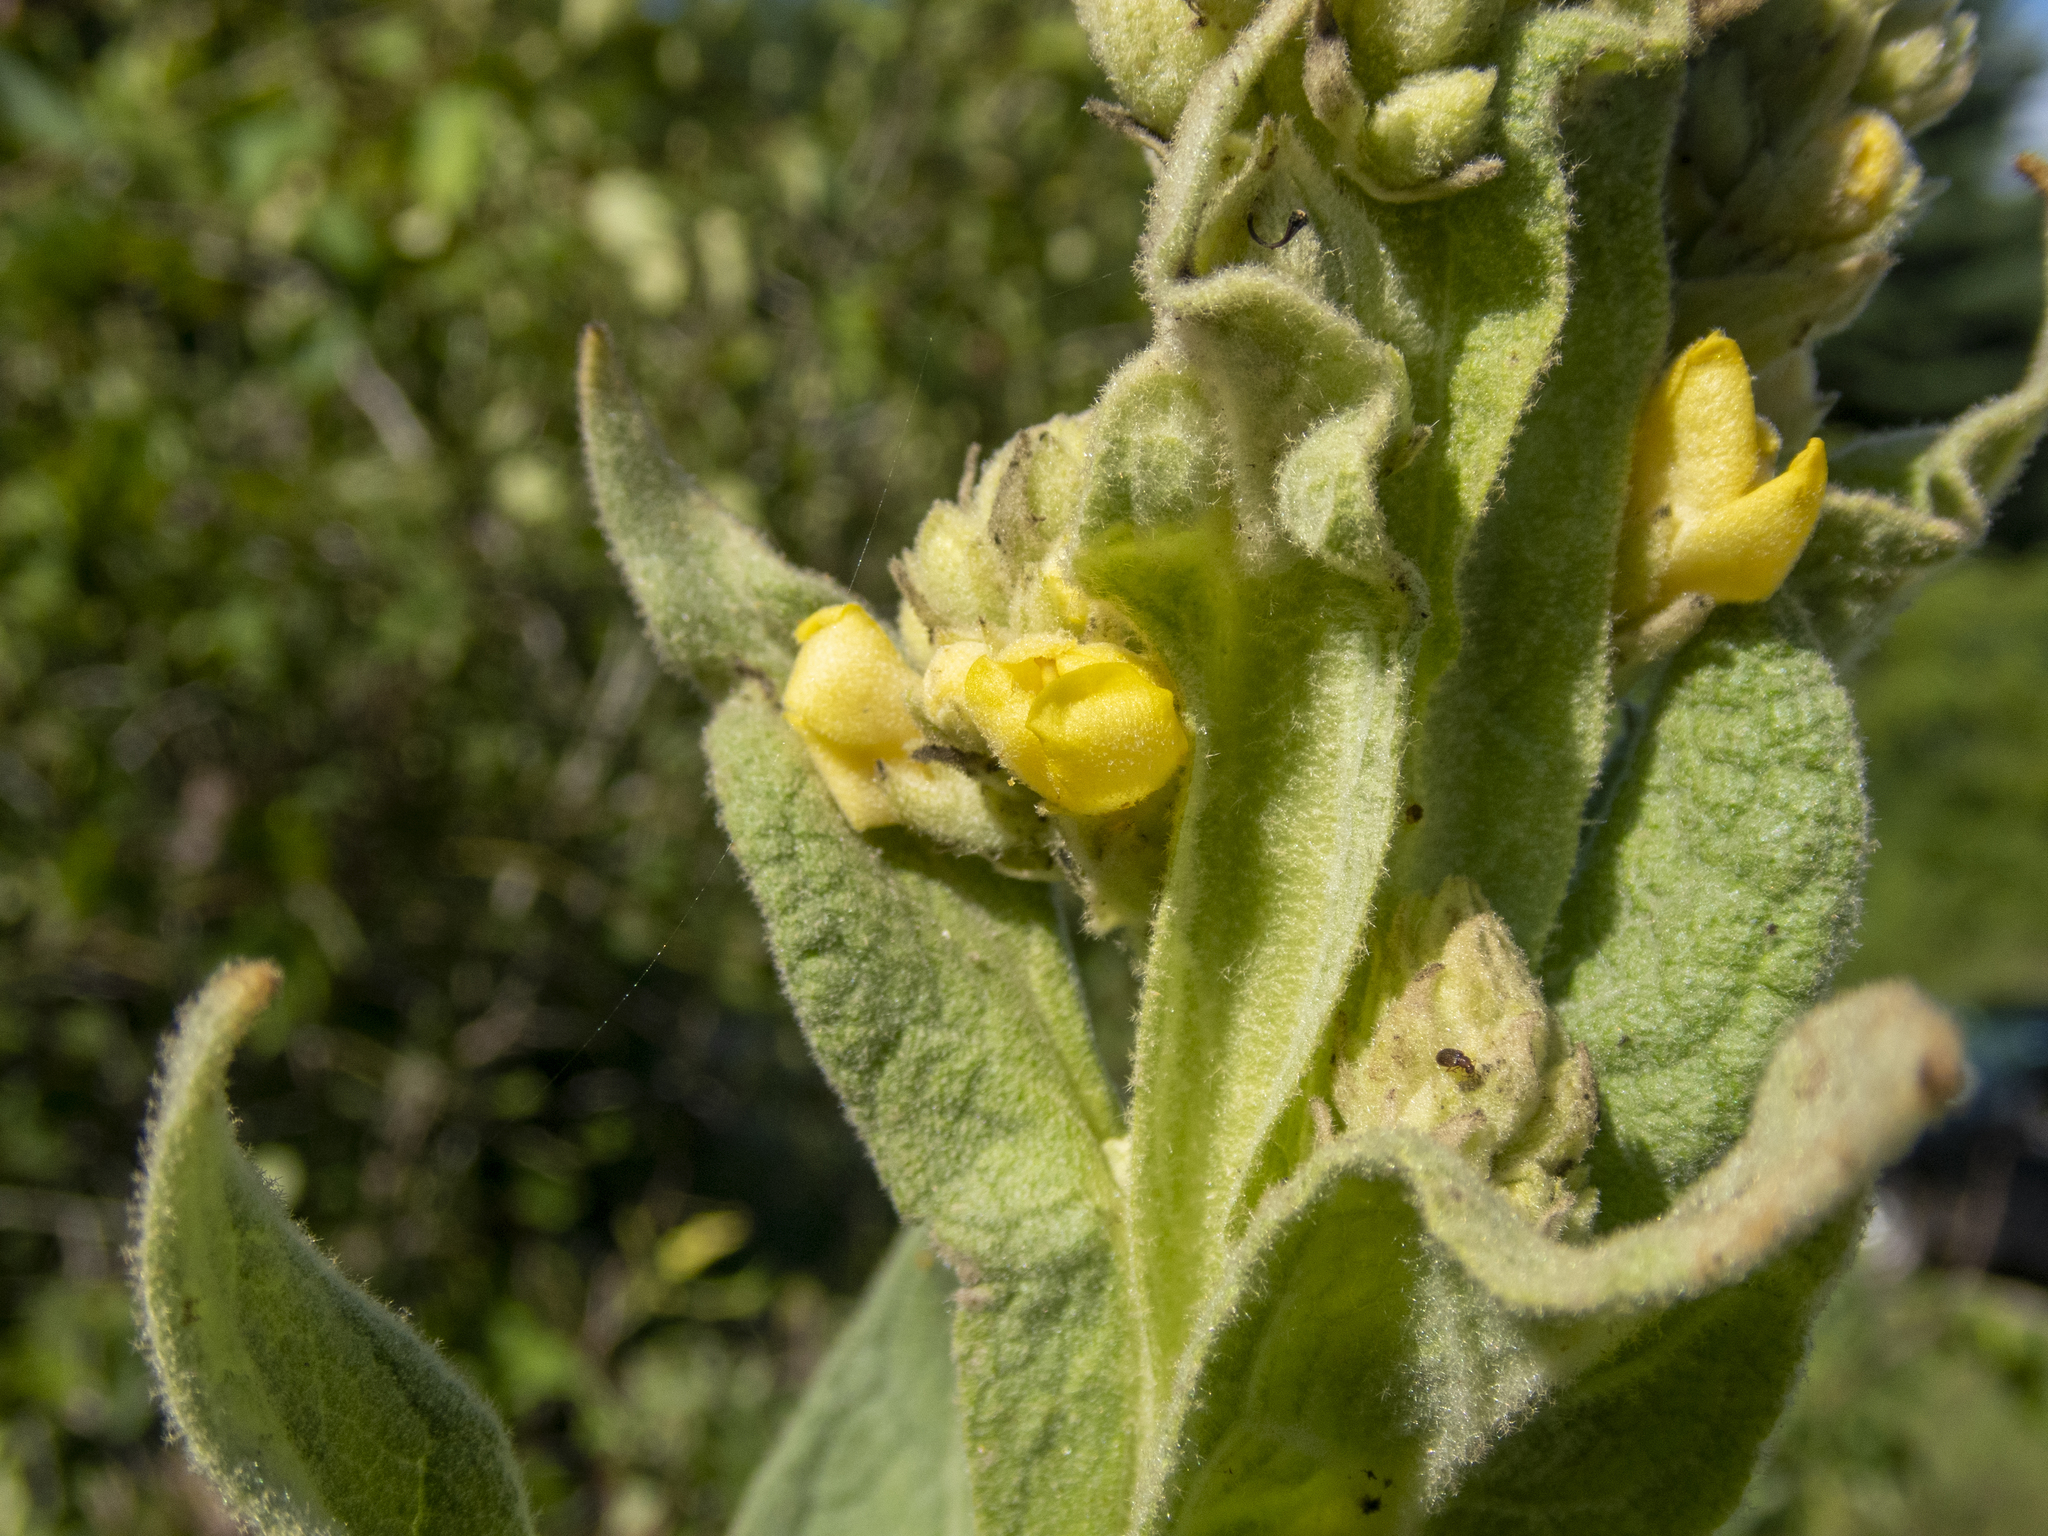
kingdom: Plantae
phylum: Tracheophyta
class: Magnoliopsida
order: Lamiales
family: Scrophulariaceae
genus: Verbascum
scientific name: Verbascum thapsus
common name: Common mullein
